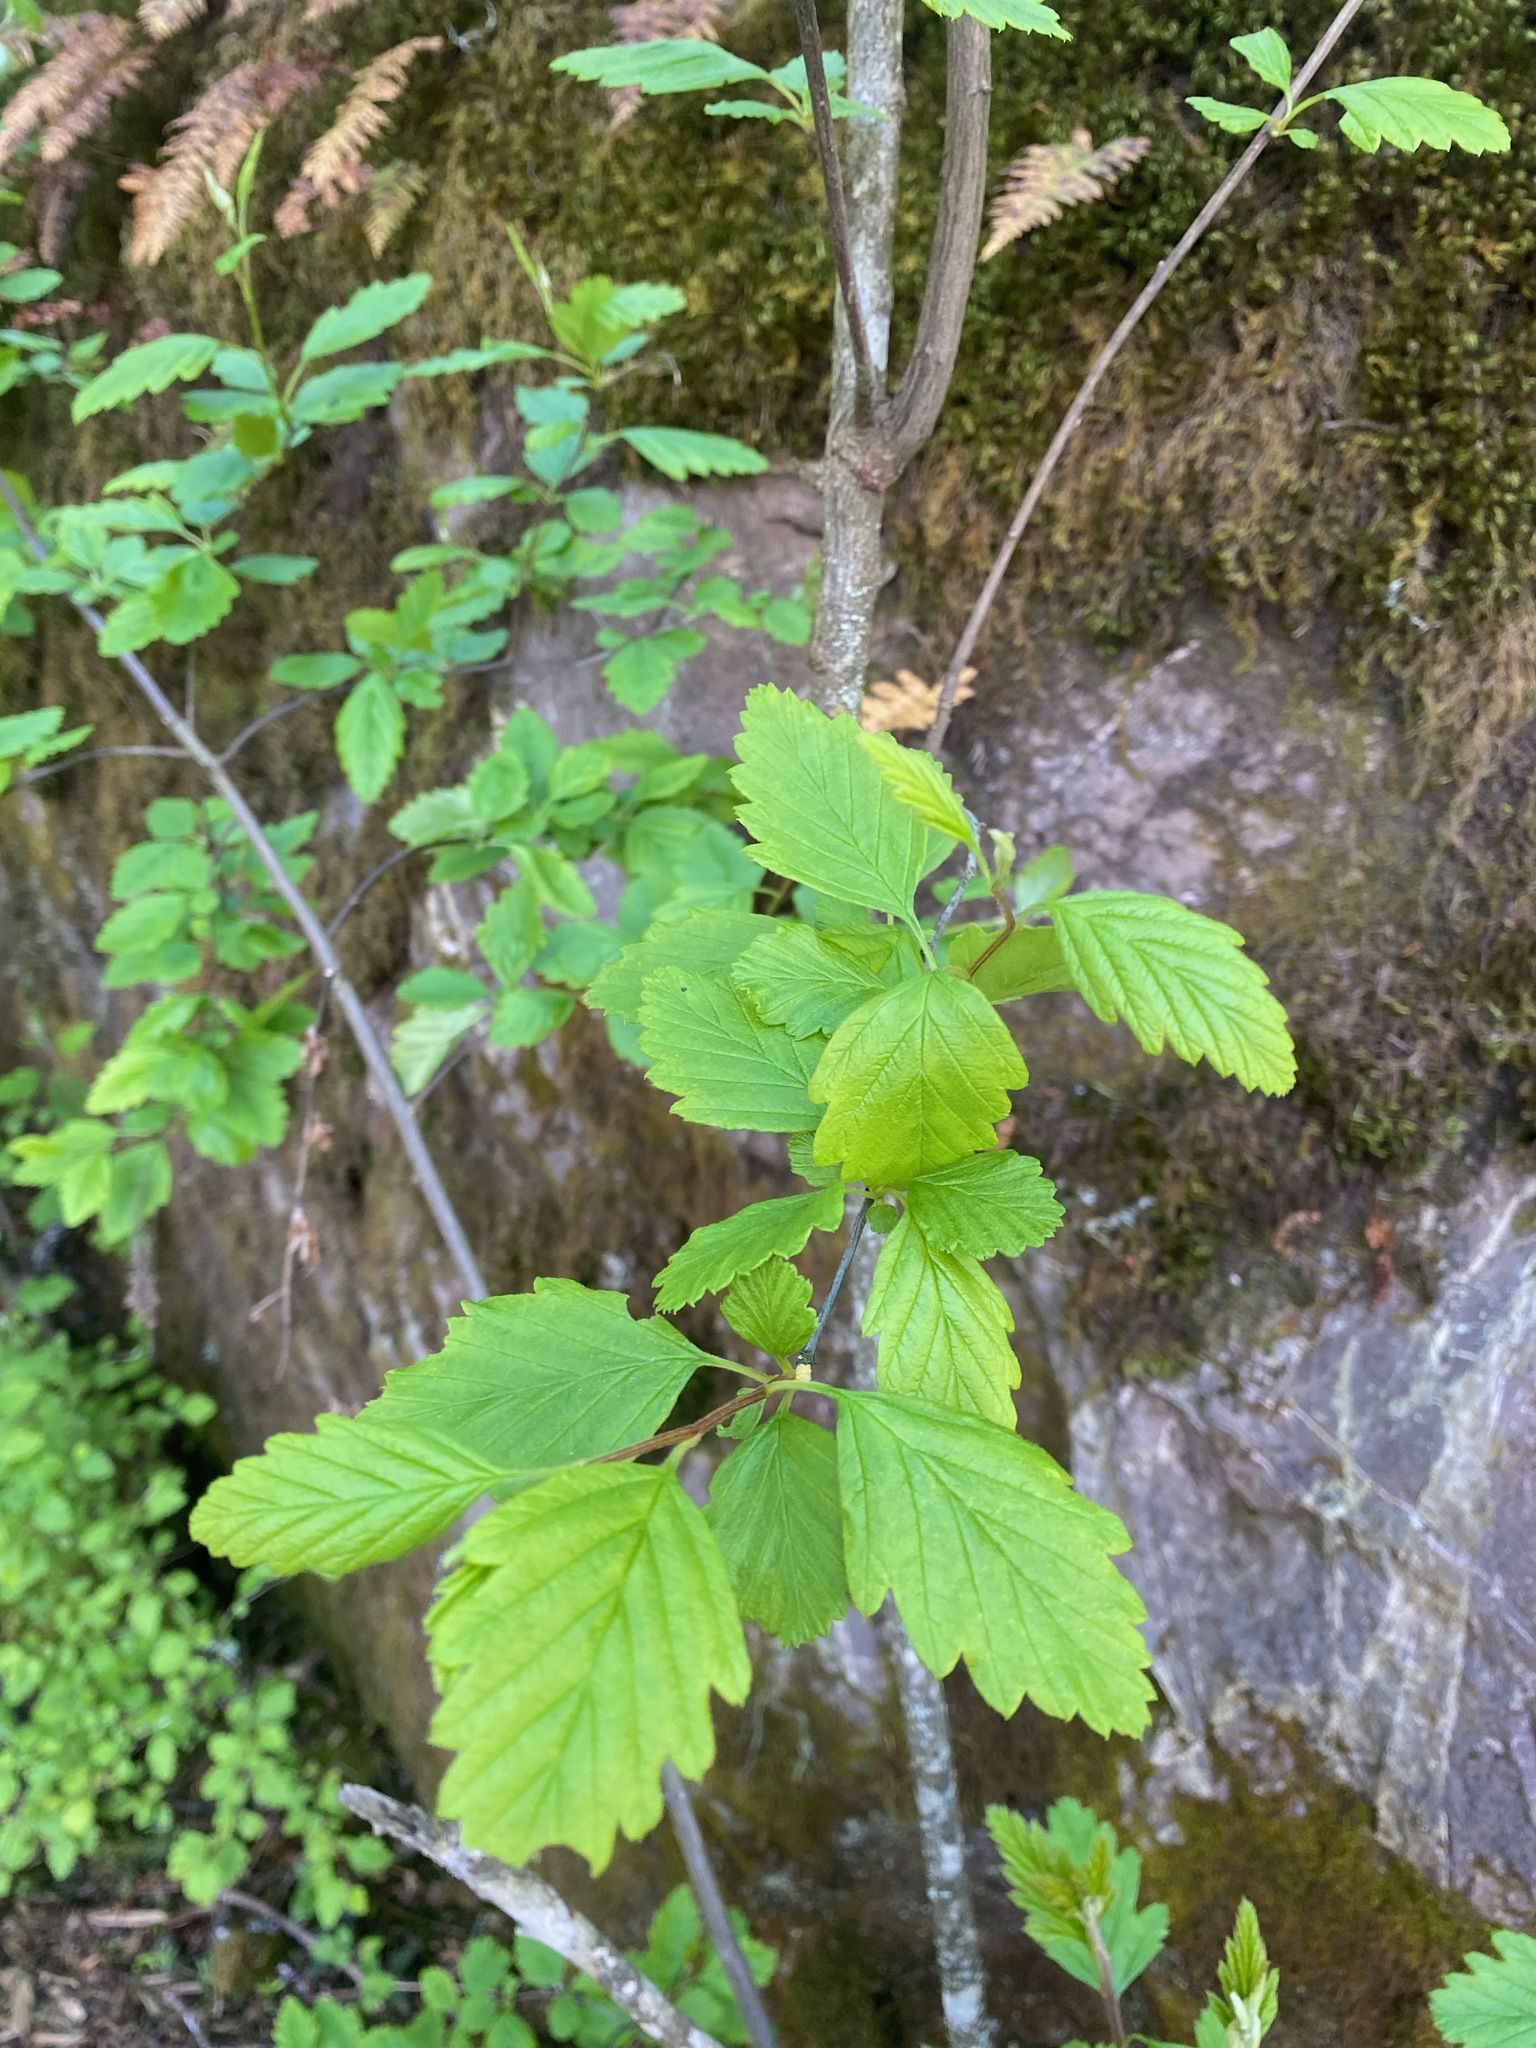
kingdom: Plantae
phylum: Tracheophyta
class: Magnoliopsida
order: Rosales
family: Rosaceae
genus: Holodiscus
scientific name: Holodiscus discolor
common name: Oceanspray
